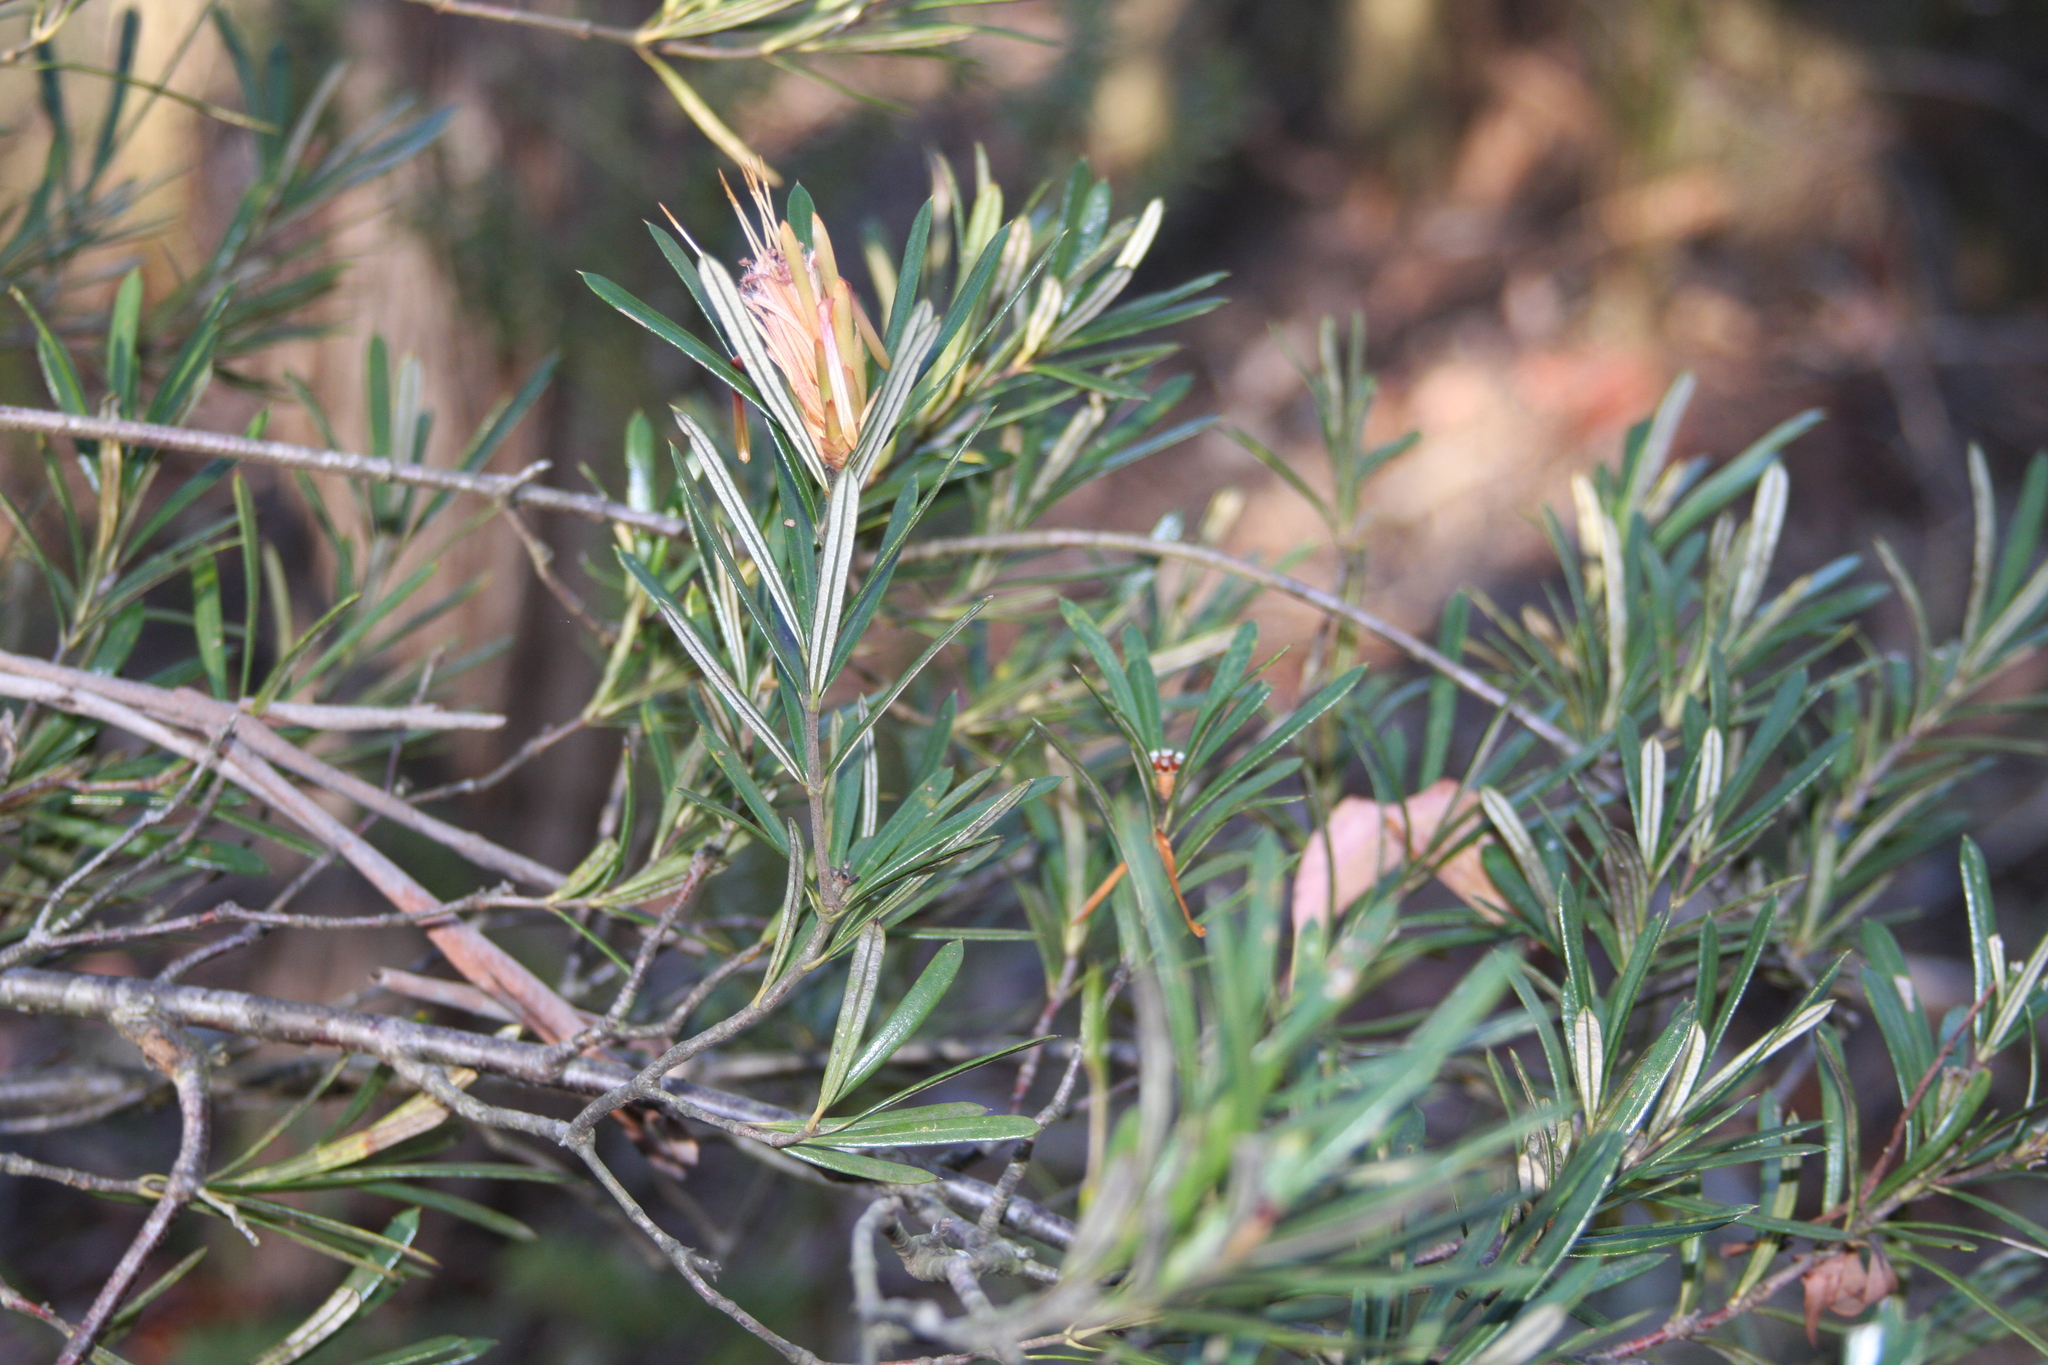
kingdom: Plantae
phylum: Tracheophyta
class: Magnoliopsida
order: Proteales
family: Proteaceae
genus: Lambertia
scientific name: Lambertia formosa
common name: Mountain-devil
